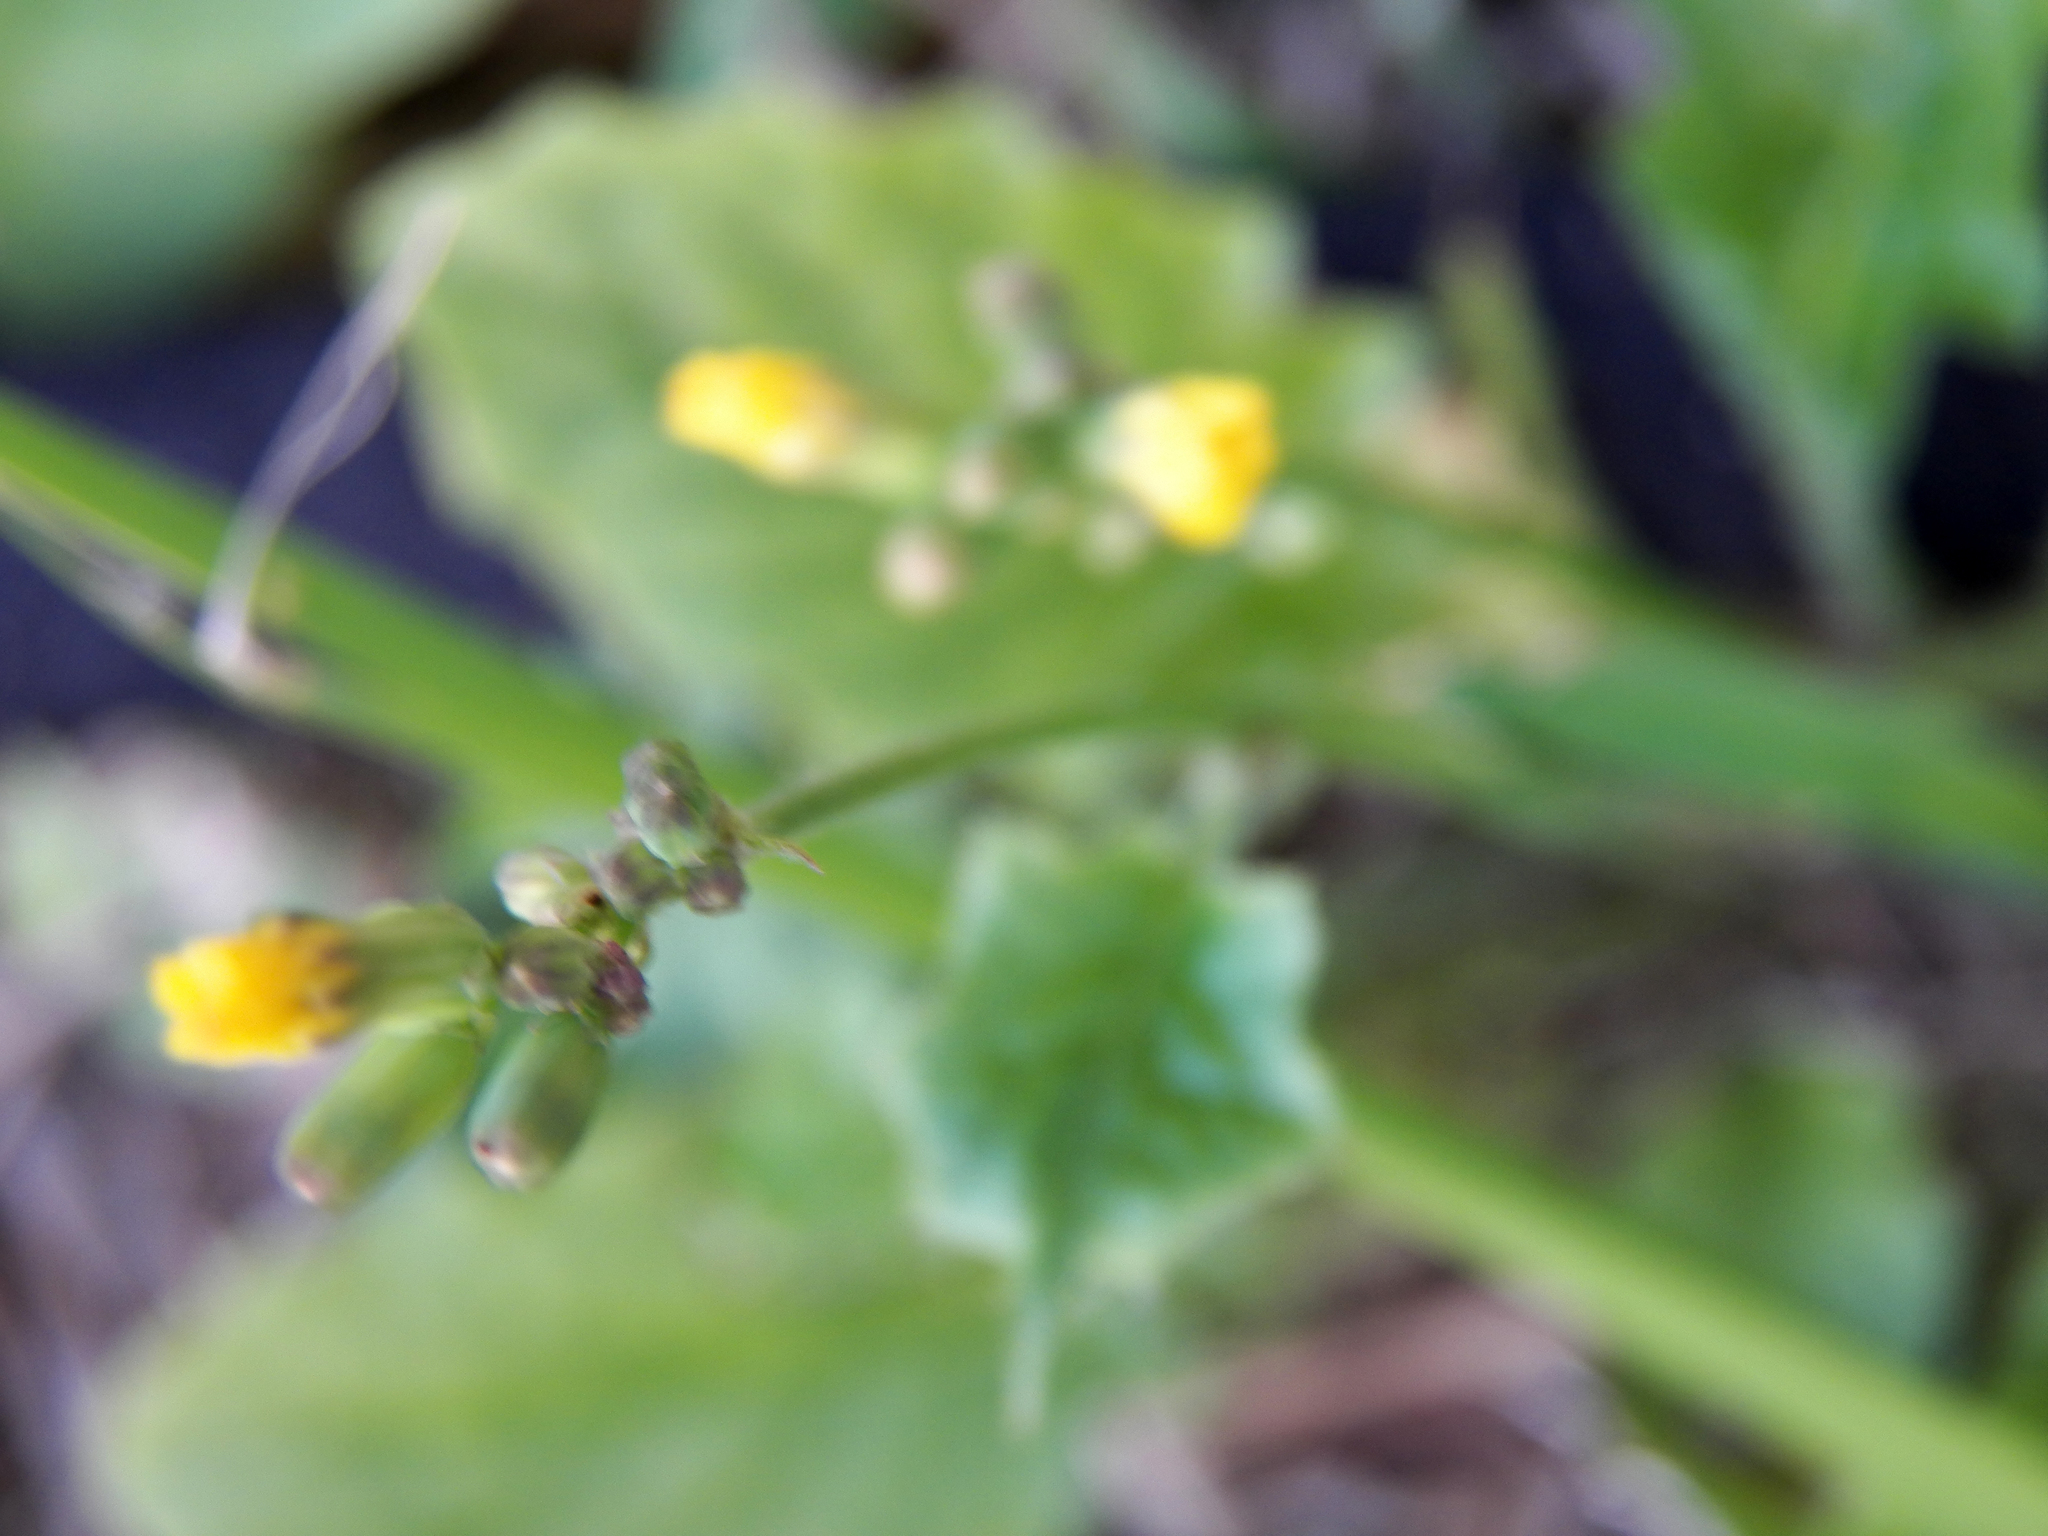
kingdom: Plantae
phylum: Tracheophyta
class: Magnoliopsida
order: Asterales
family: Asteraceae
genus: Youngia
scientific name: Youngia japonica
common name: Oriental false hawksbeard
